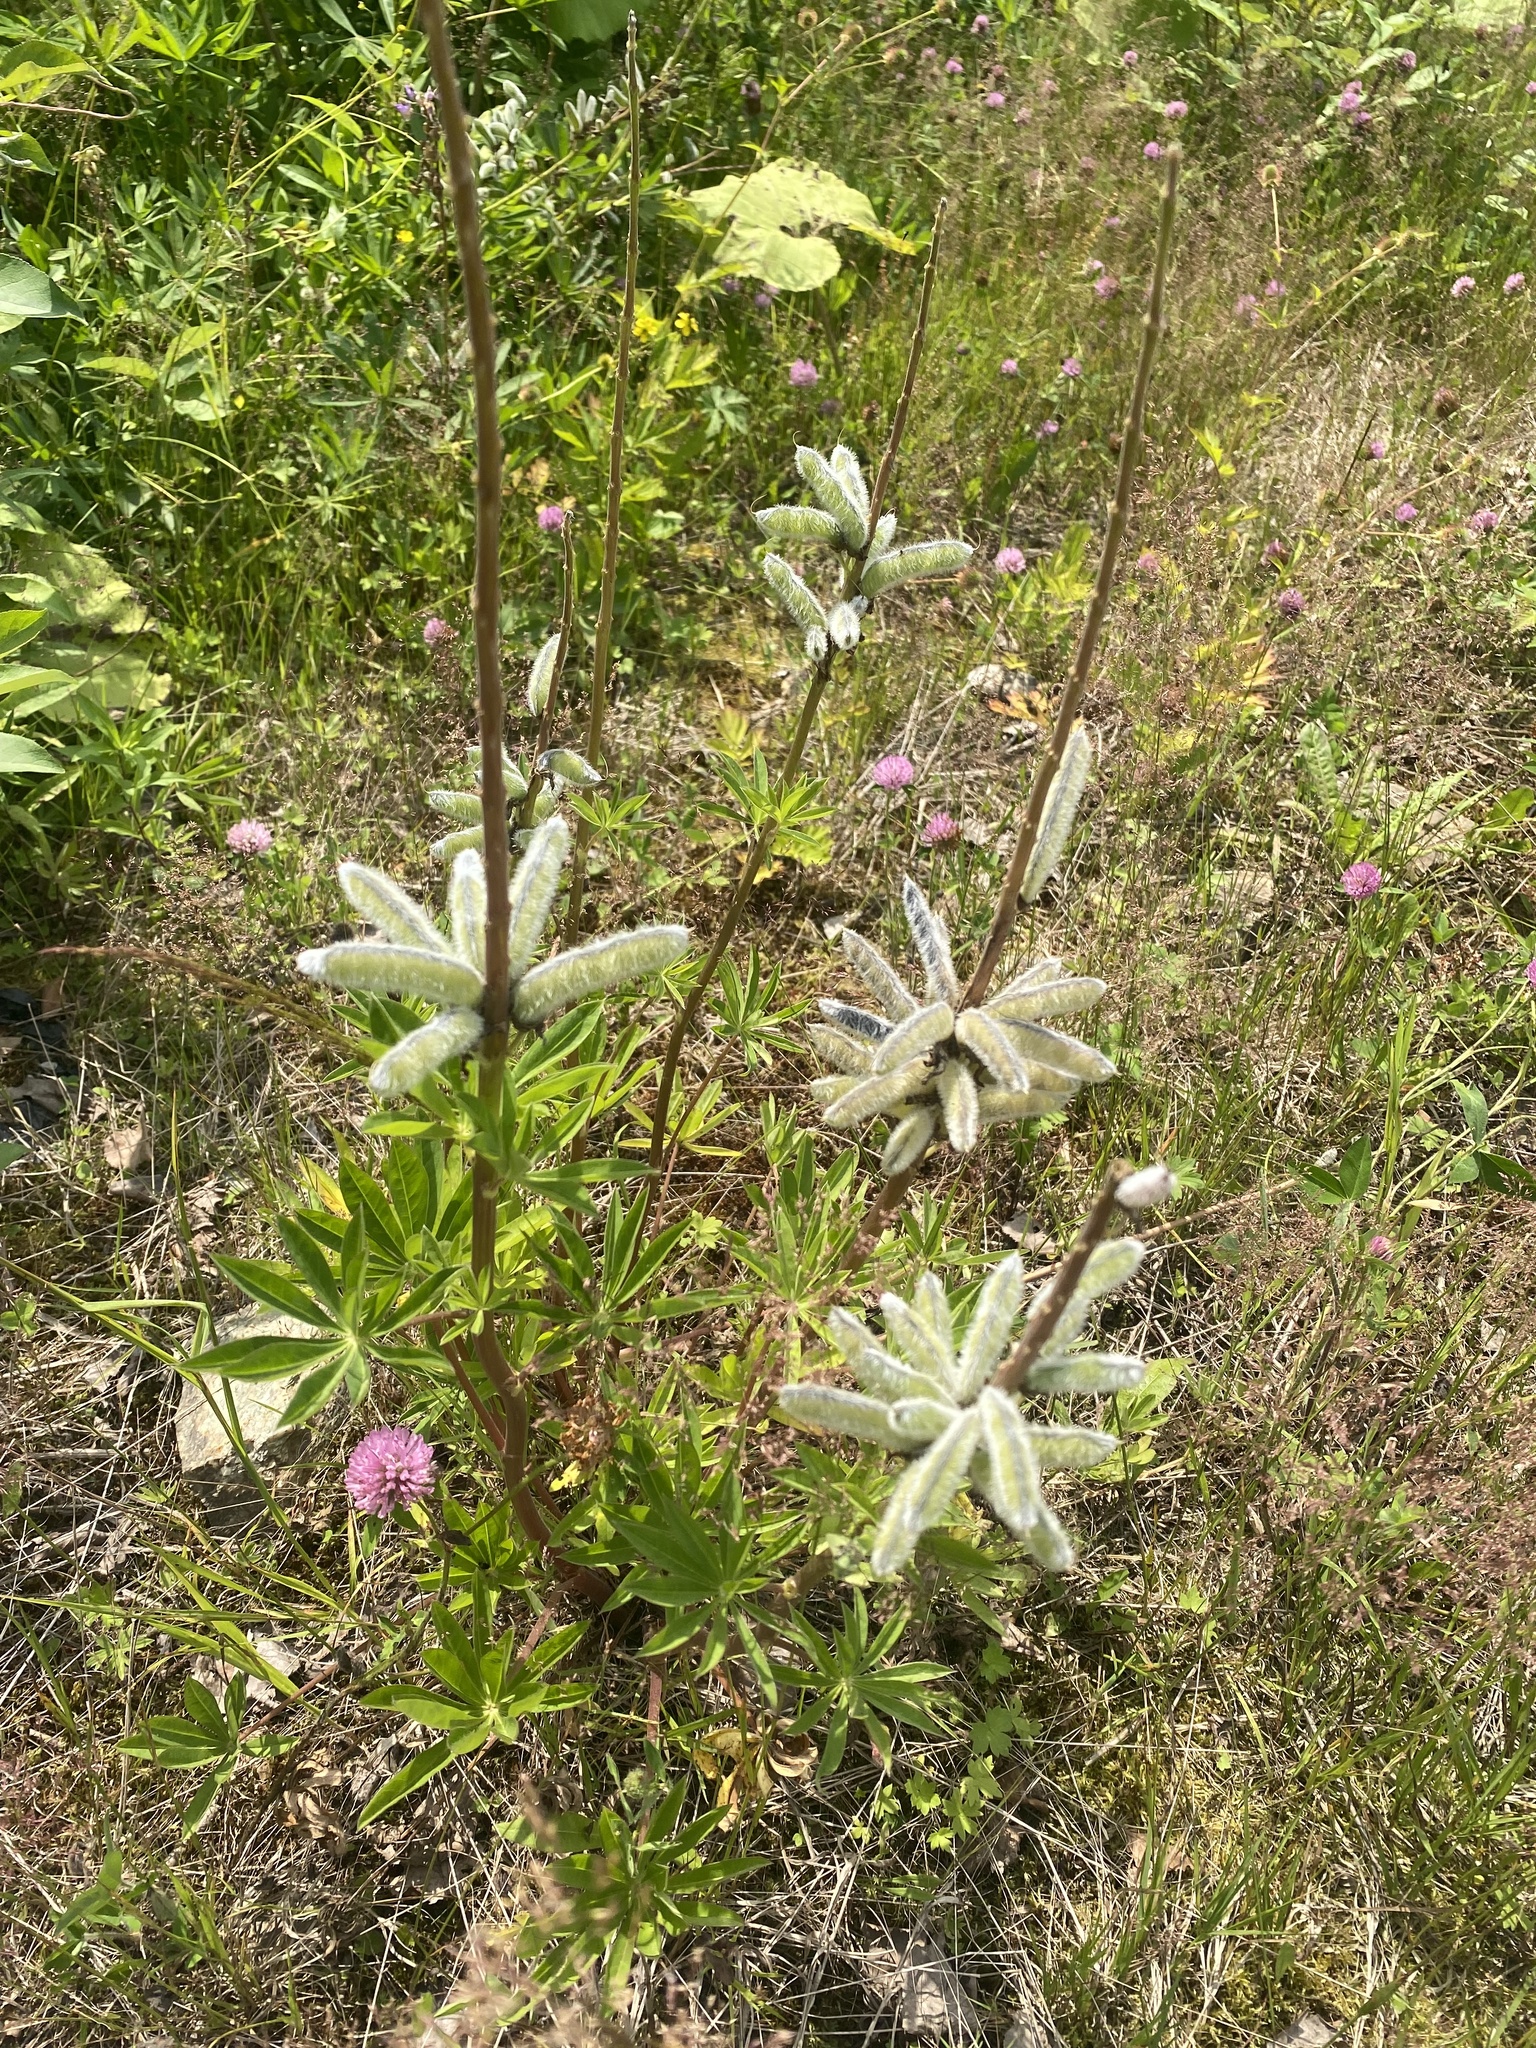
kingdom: Plantae
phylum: Tracheophyta
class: Magnoliopsida
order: Fabales
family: Fabaceae
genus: Lupinus
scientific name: Lupinus polyphyllus
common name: Garden lupin
